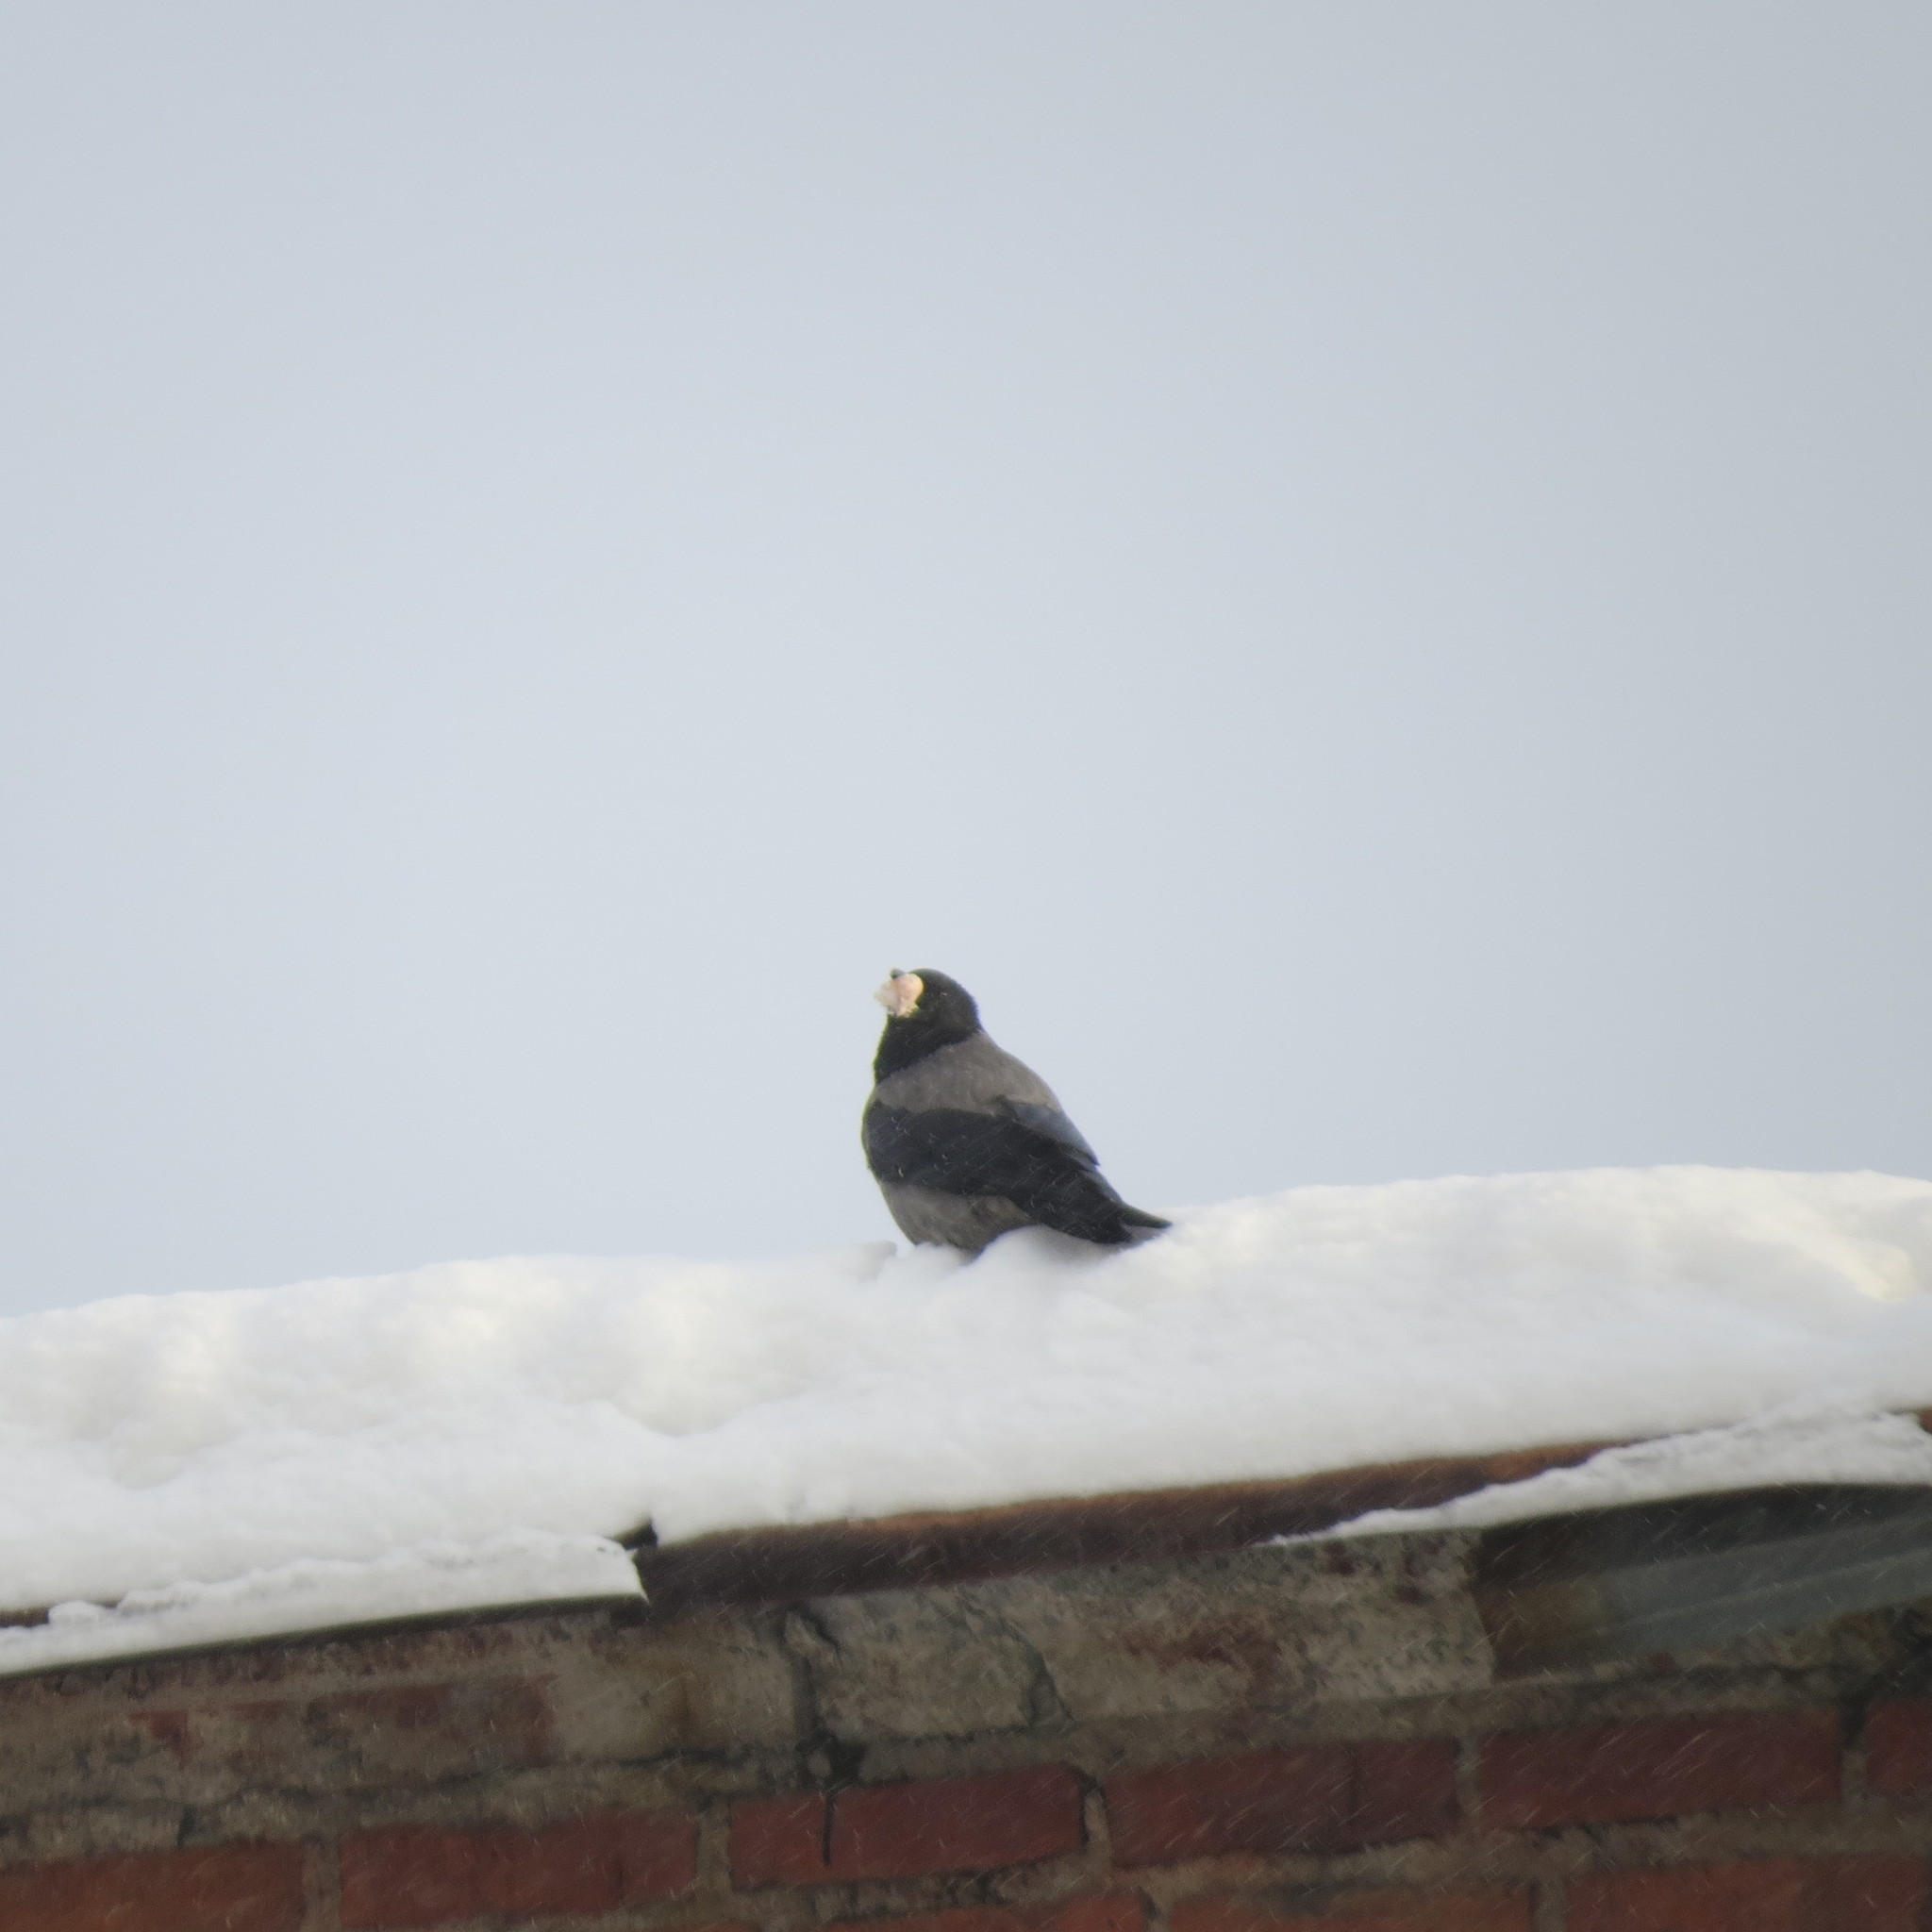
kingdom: Animalia
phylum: Chordata
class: Aves
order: Passeriformes
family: Corvidae
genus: Corvus
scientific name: Corvus cornix
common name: Hooded crow
